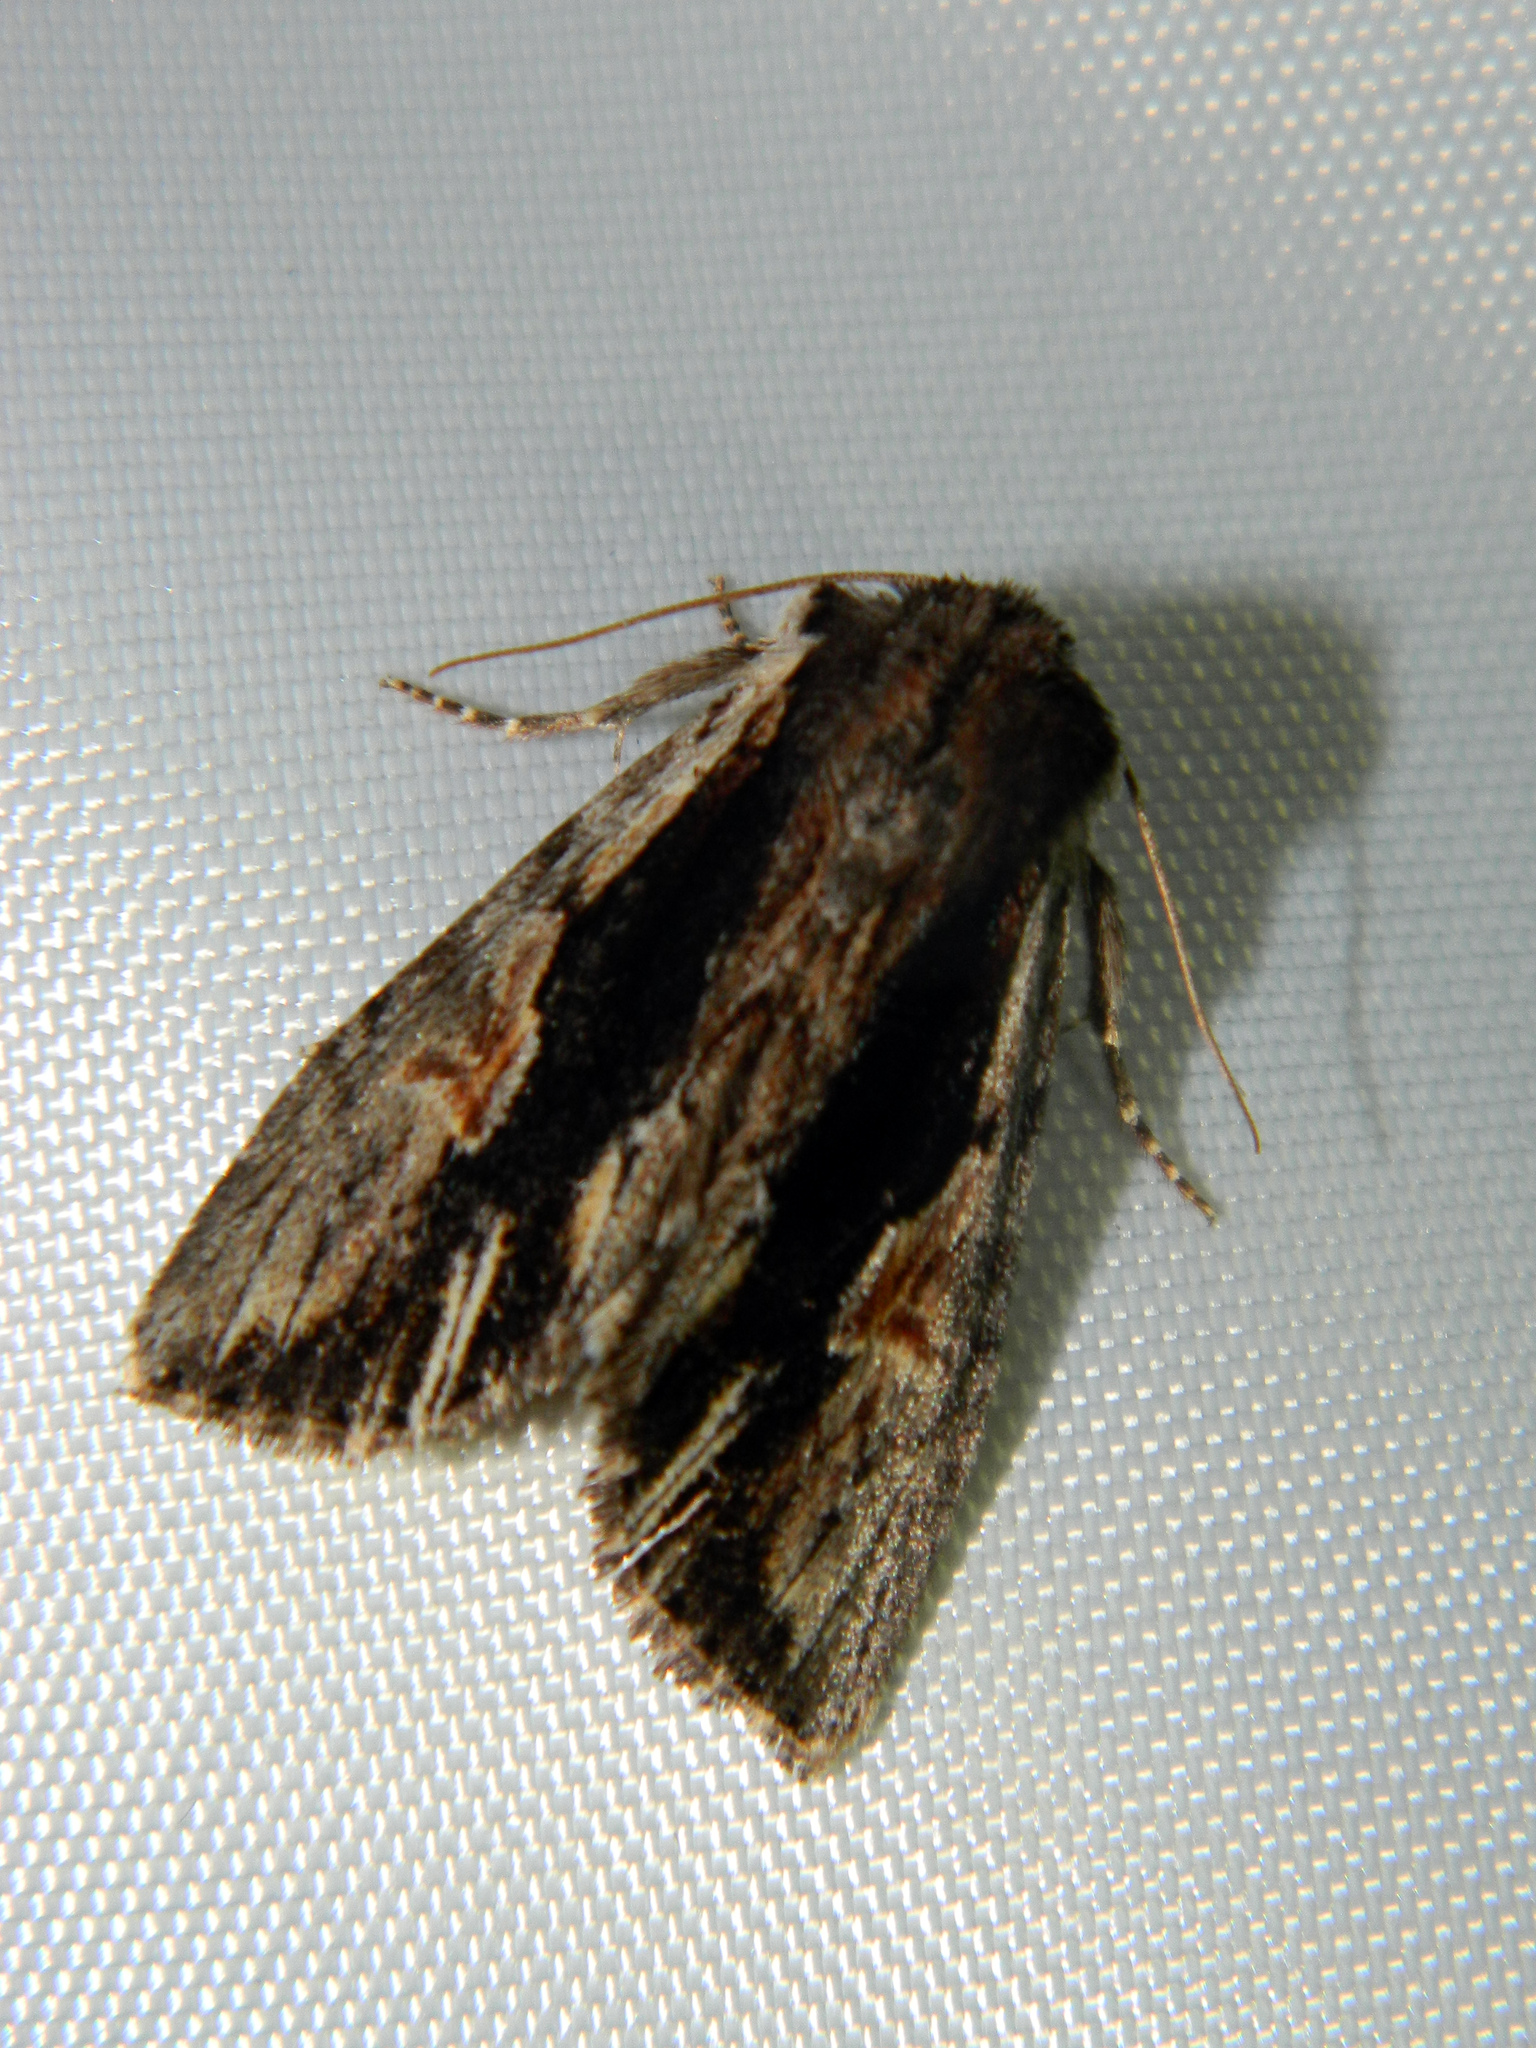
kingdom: Animalia
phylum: Arthropoda
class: Insecta
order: Lepidoptera
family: Noctuidae
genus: Achatia
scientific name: Achatia evicta
